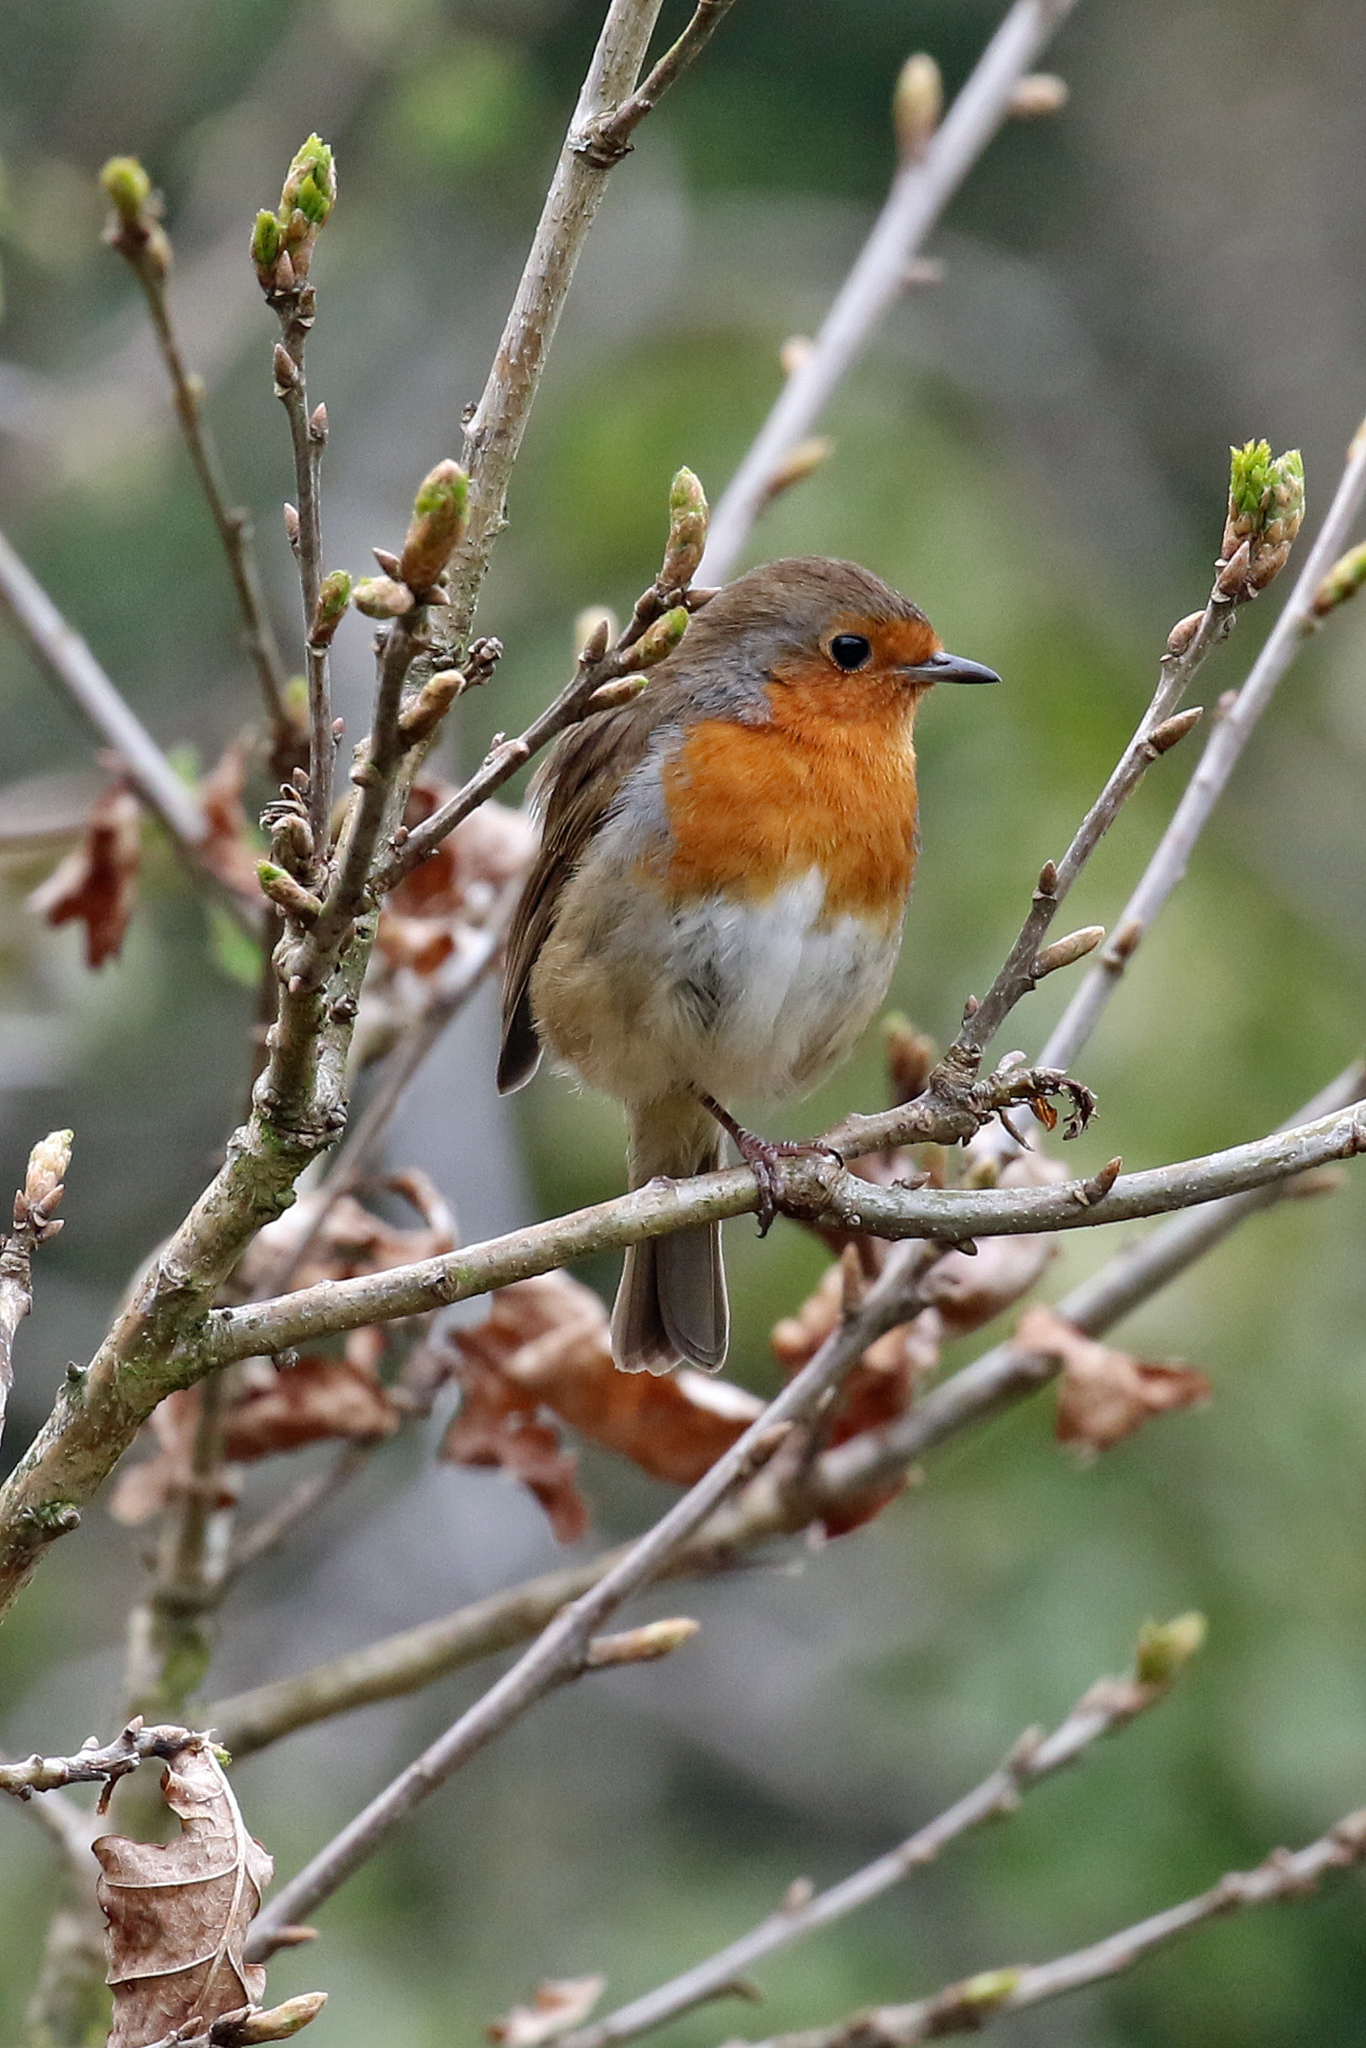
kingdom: Animalia
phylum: Chordata
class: Aves
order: Passeriformes
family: Muscicapidae
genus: Erithacus
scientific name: Erithacus rubecula
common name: European robin
